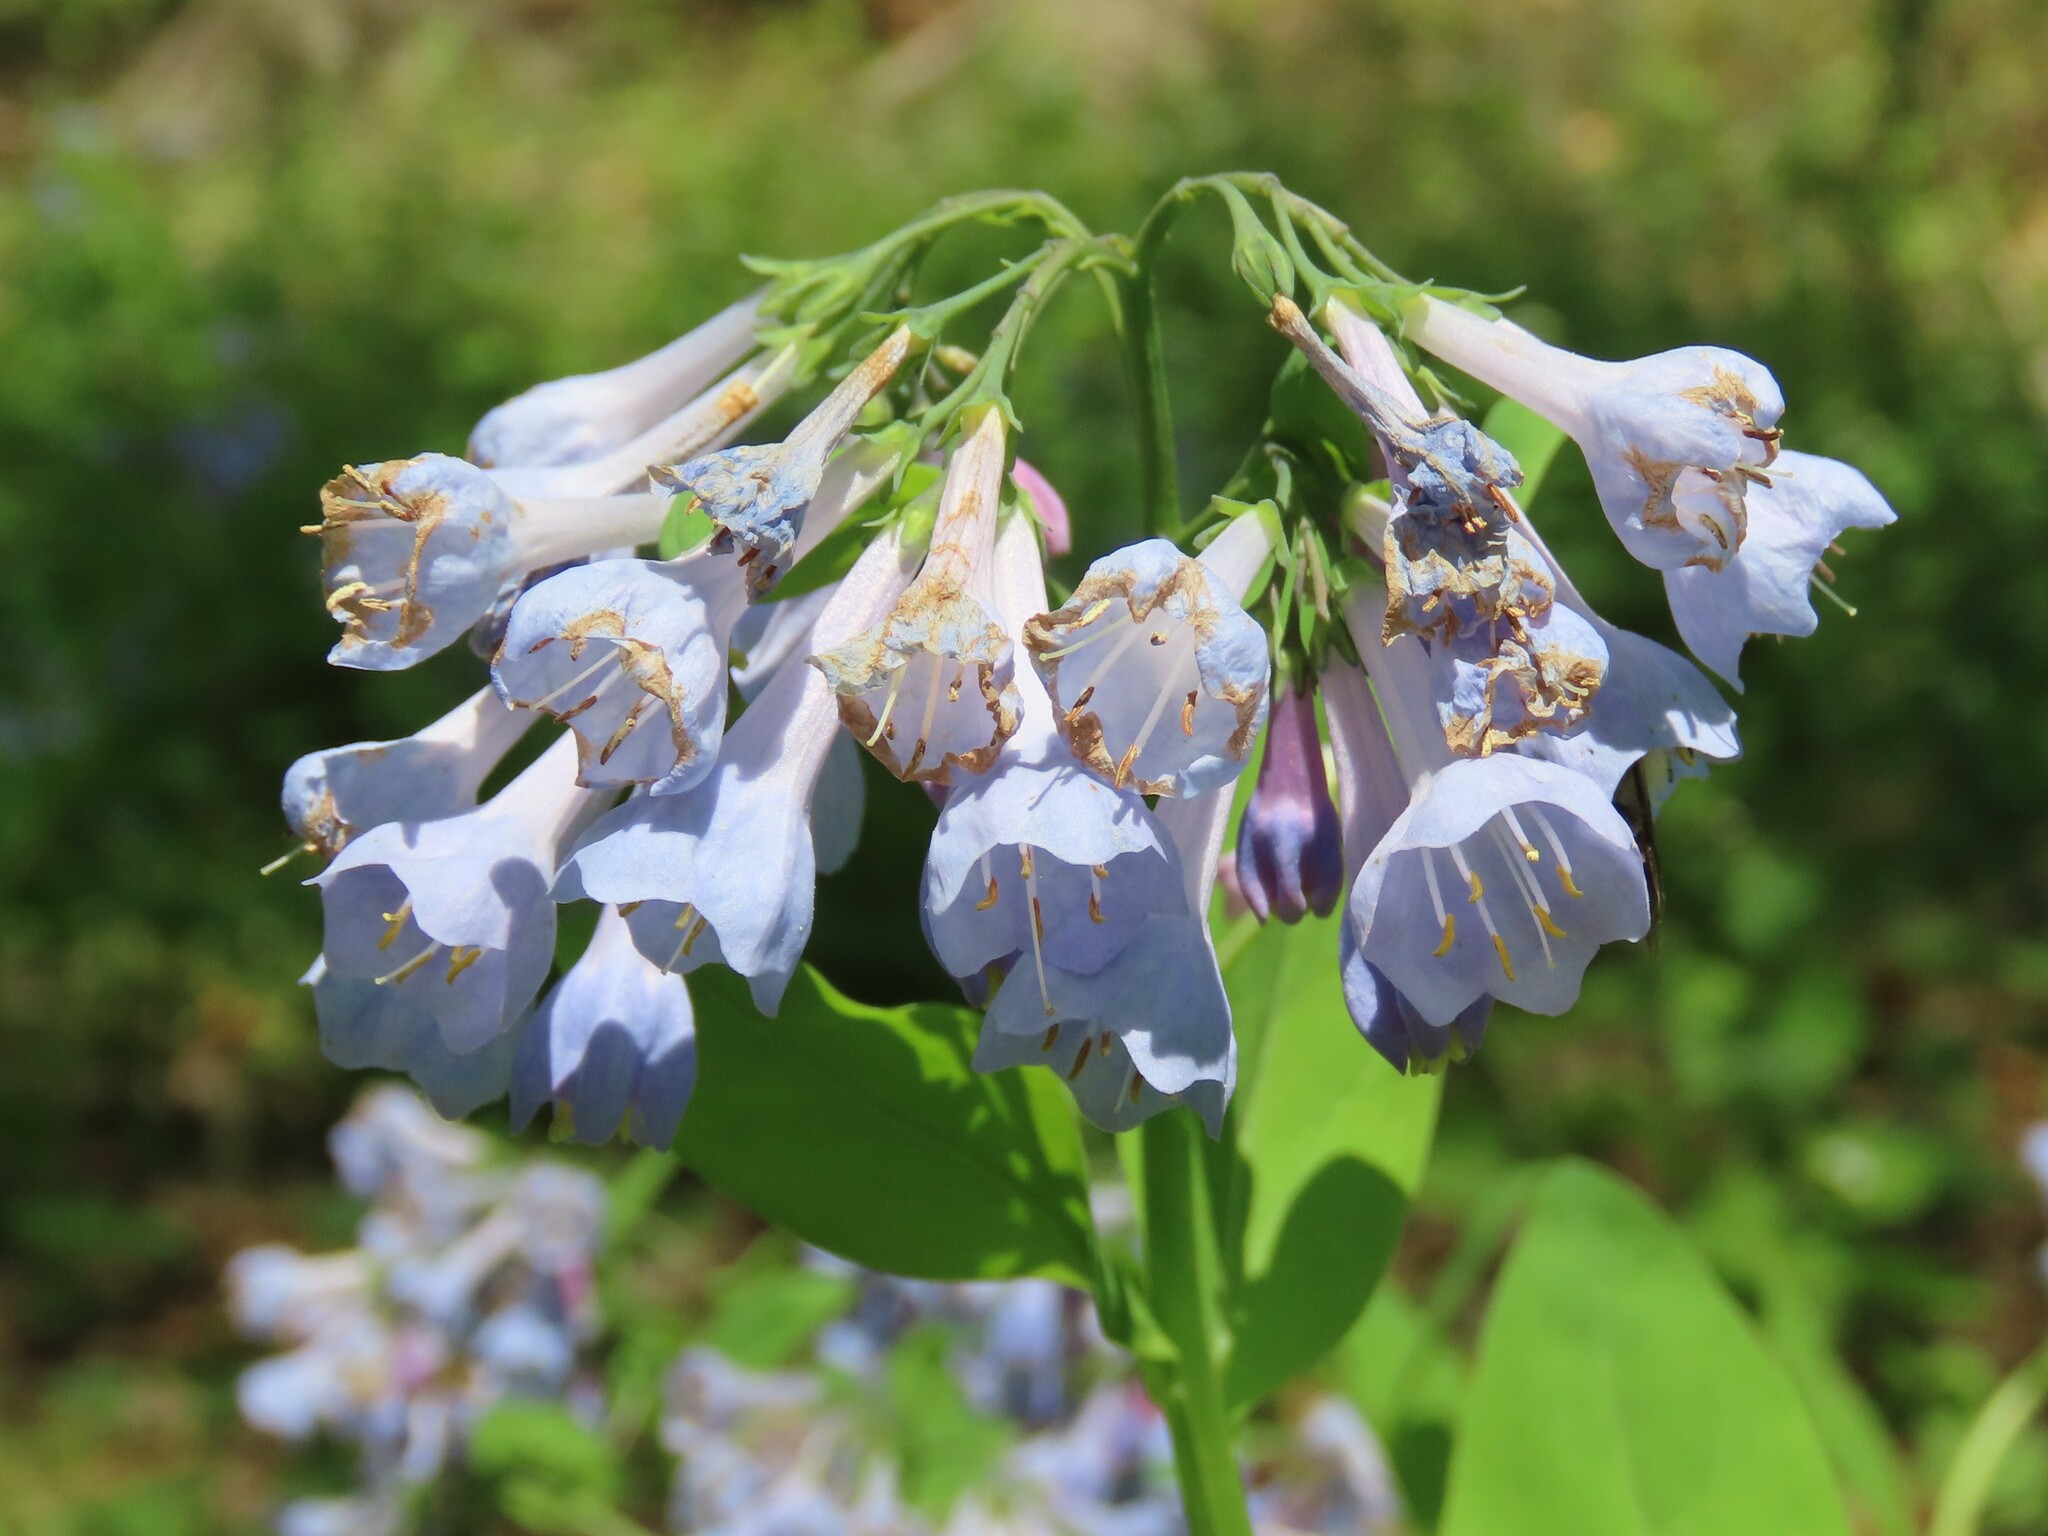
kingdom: Plantae
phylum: Tracheophyta
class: Magnoliopsida
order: Boraginales
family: Boraginaceae
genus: Mertensia
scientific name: Mertensia virginica
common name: Virginia bluebells
